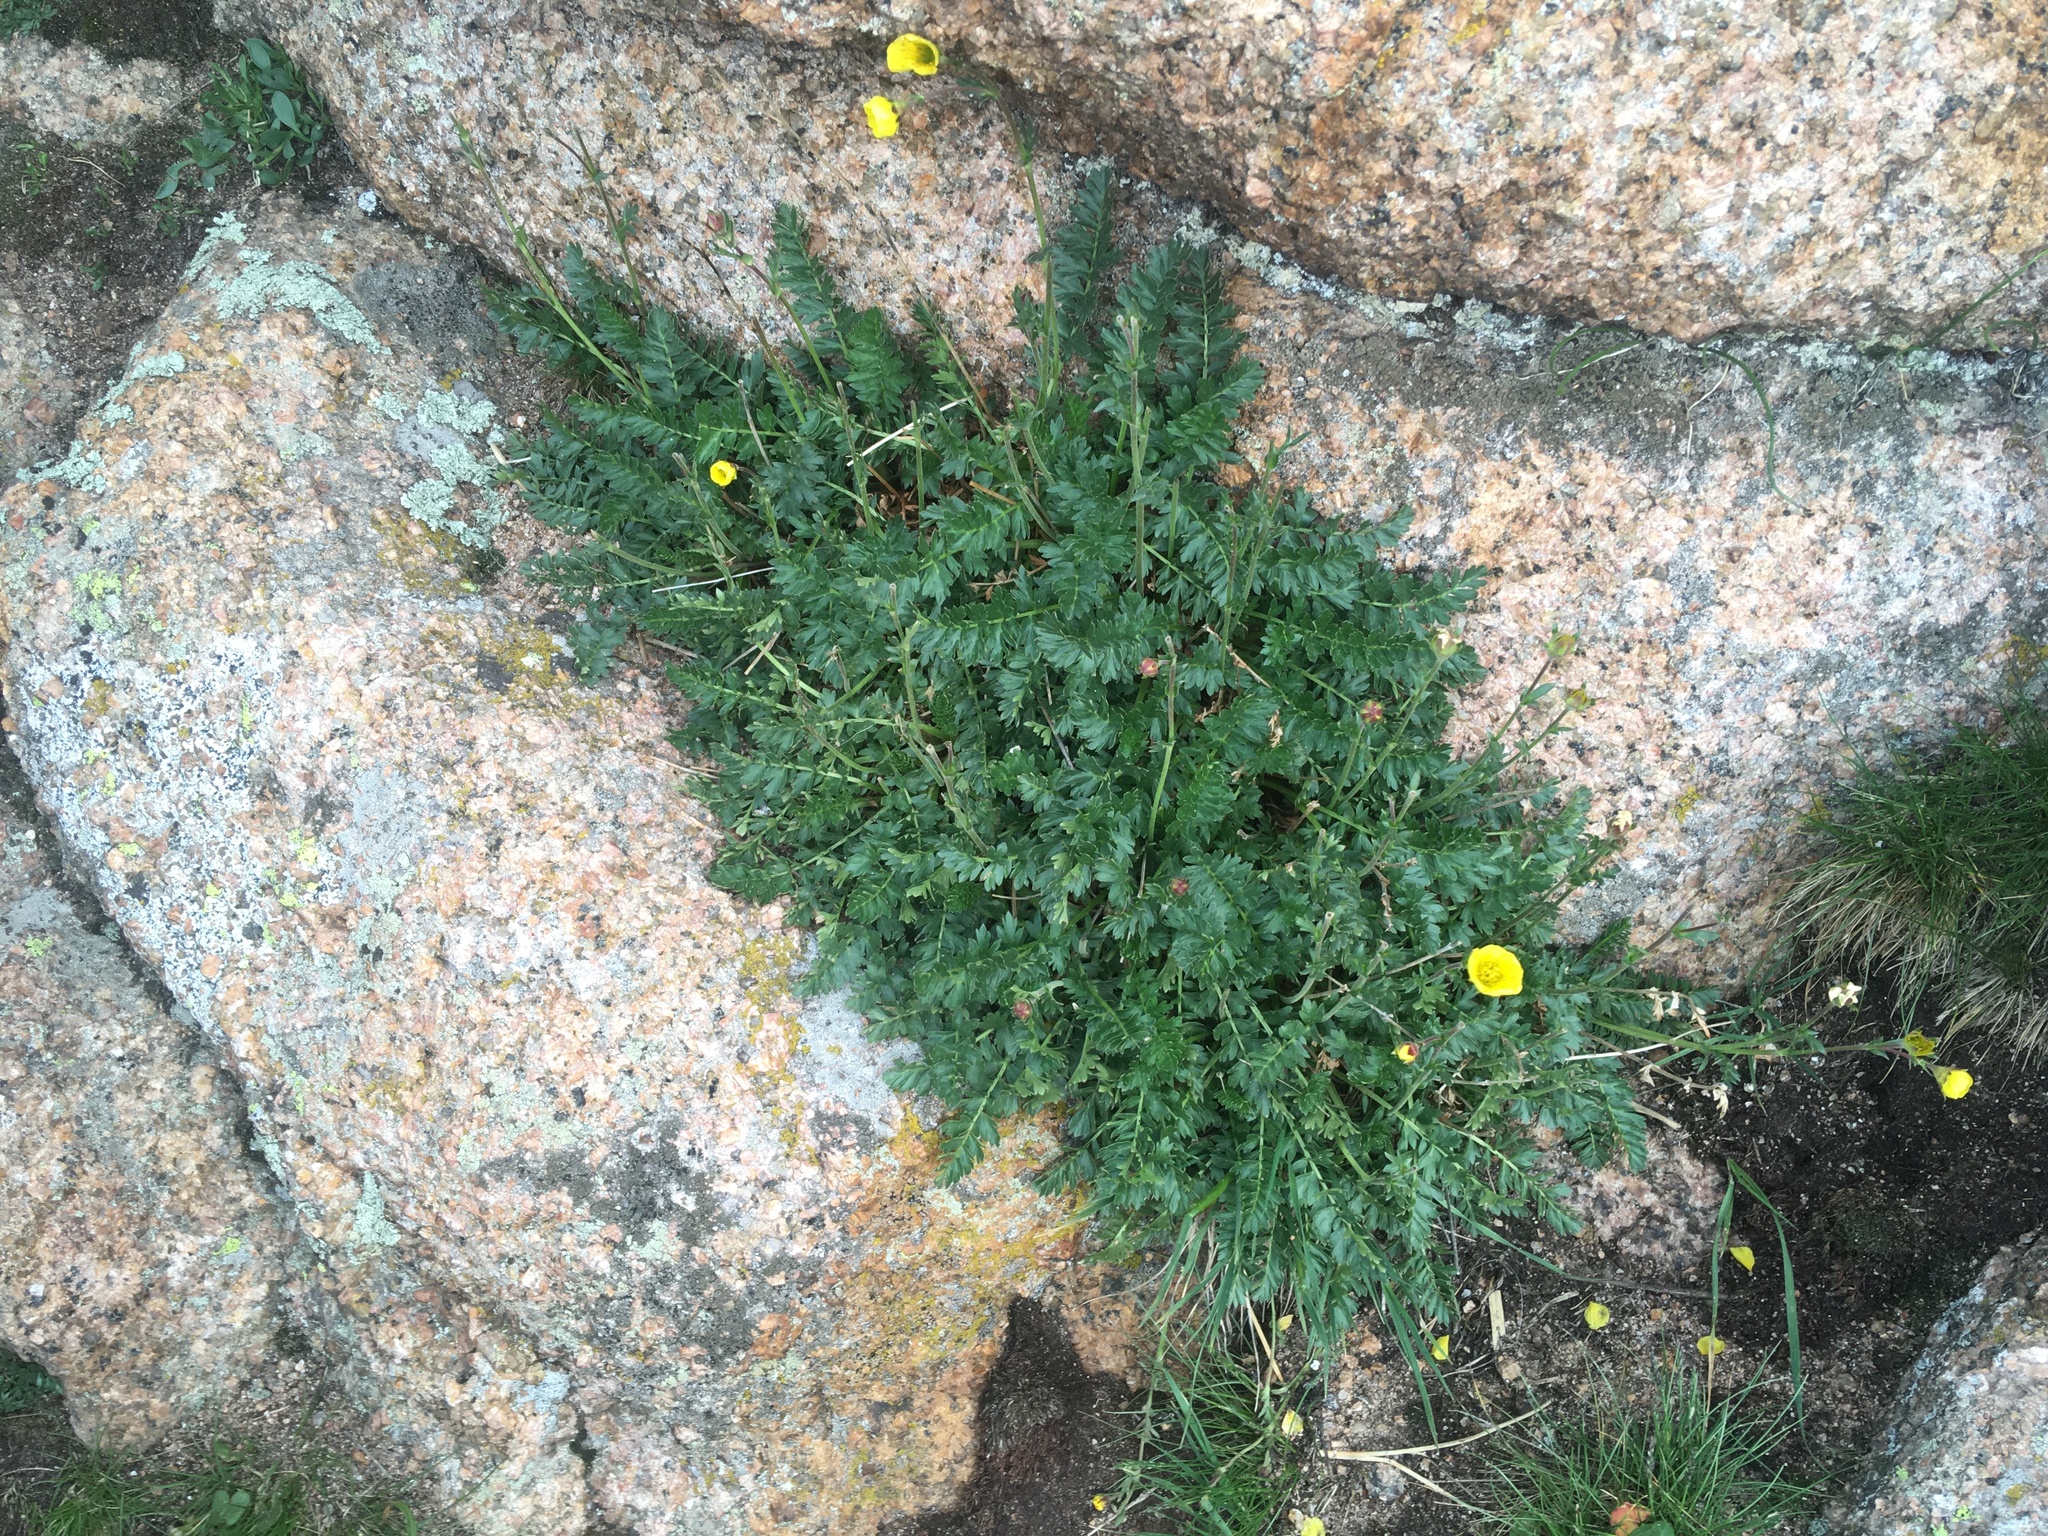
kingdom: Plantae
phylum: Tracheophyta
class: Magnoliopsida
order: Rosales
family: Rosaceae
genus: Geum
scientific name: Geum rossii
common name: Alpine avens
